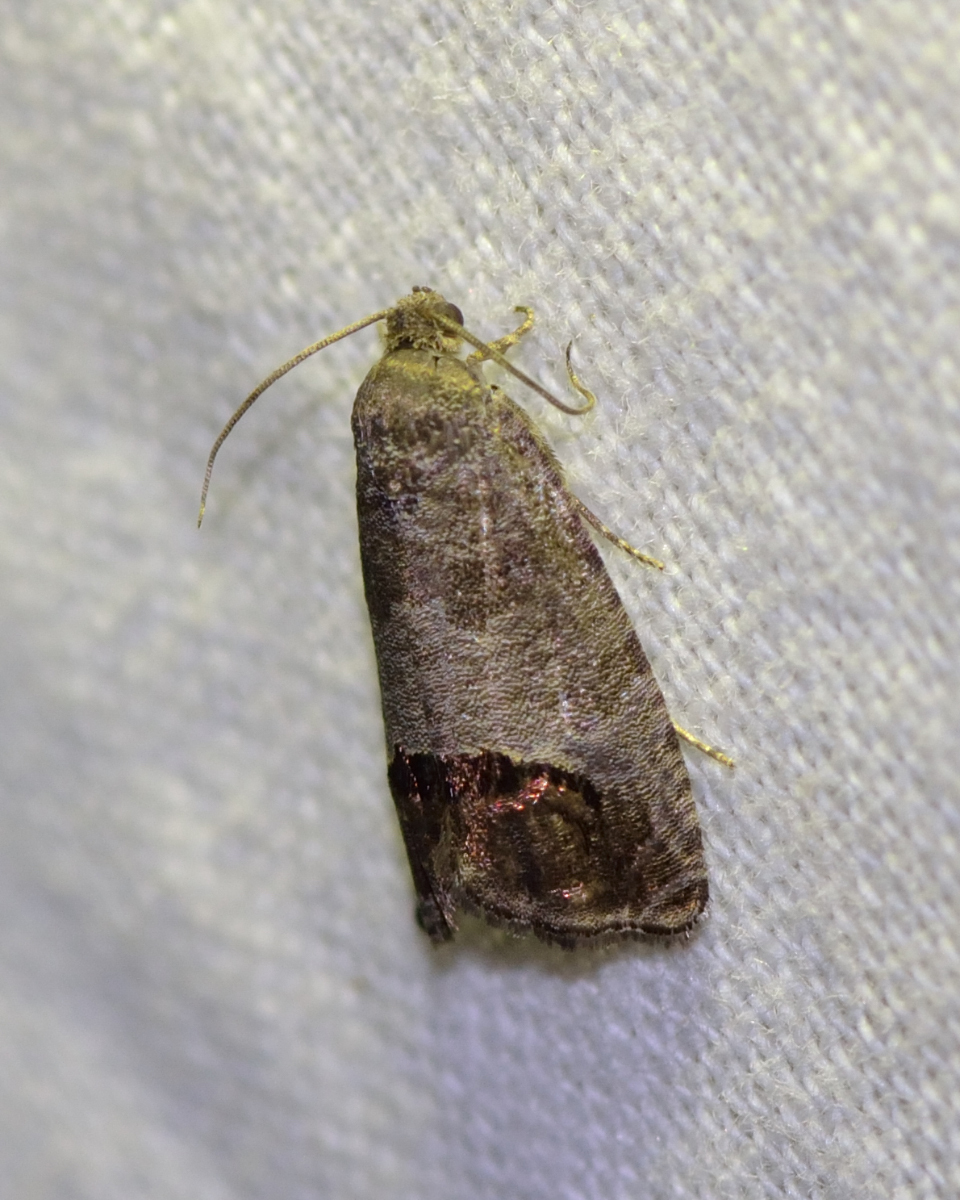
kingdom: Animalia
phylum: Arthropoda
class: Insecta
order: Lepidoptera
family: Tortricidae
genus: Cydia
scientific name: Cydia pomonella
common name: Codling moth
